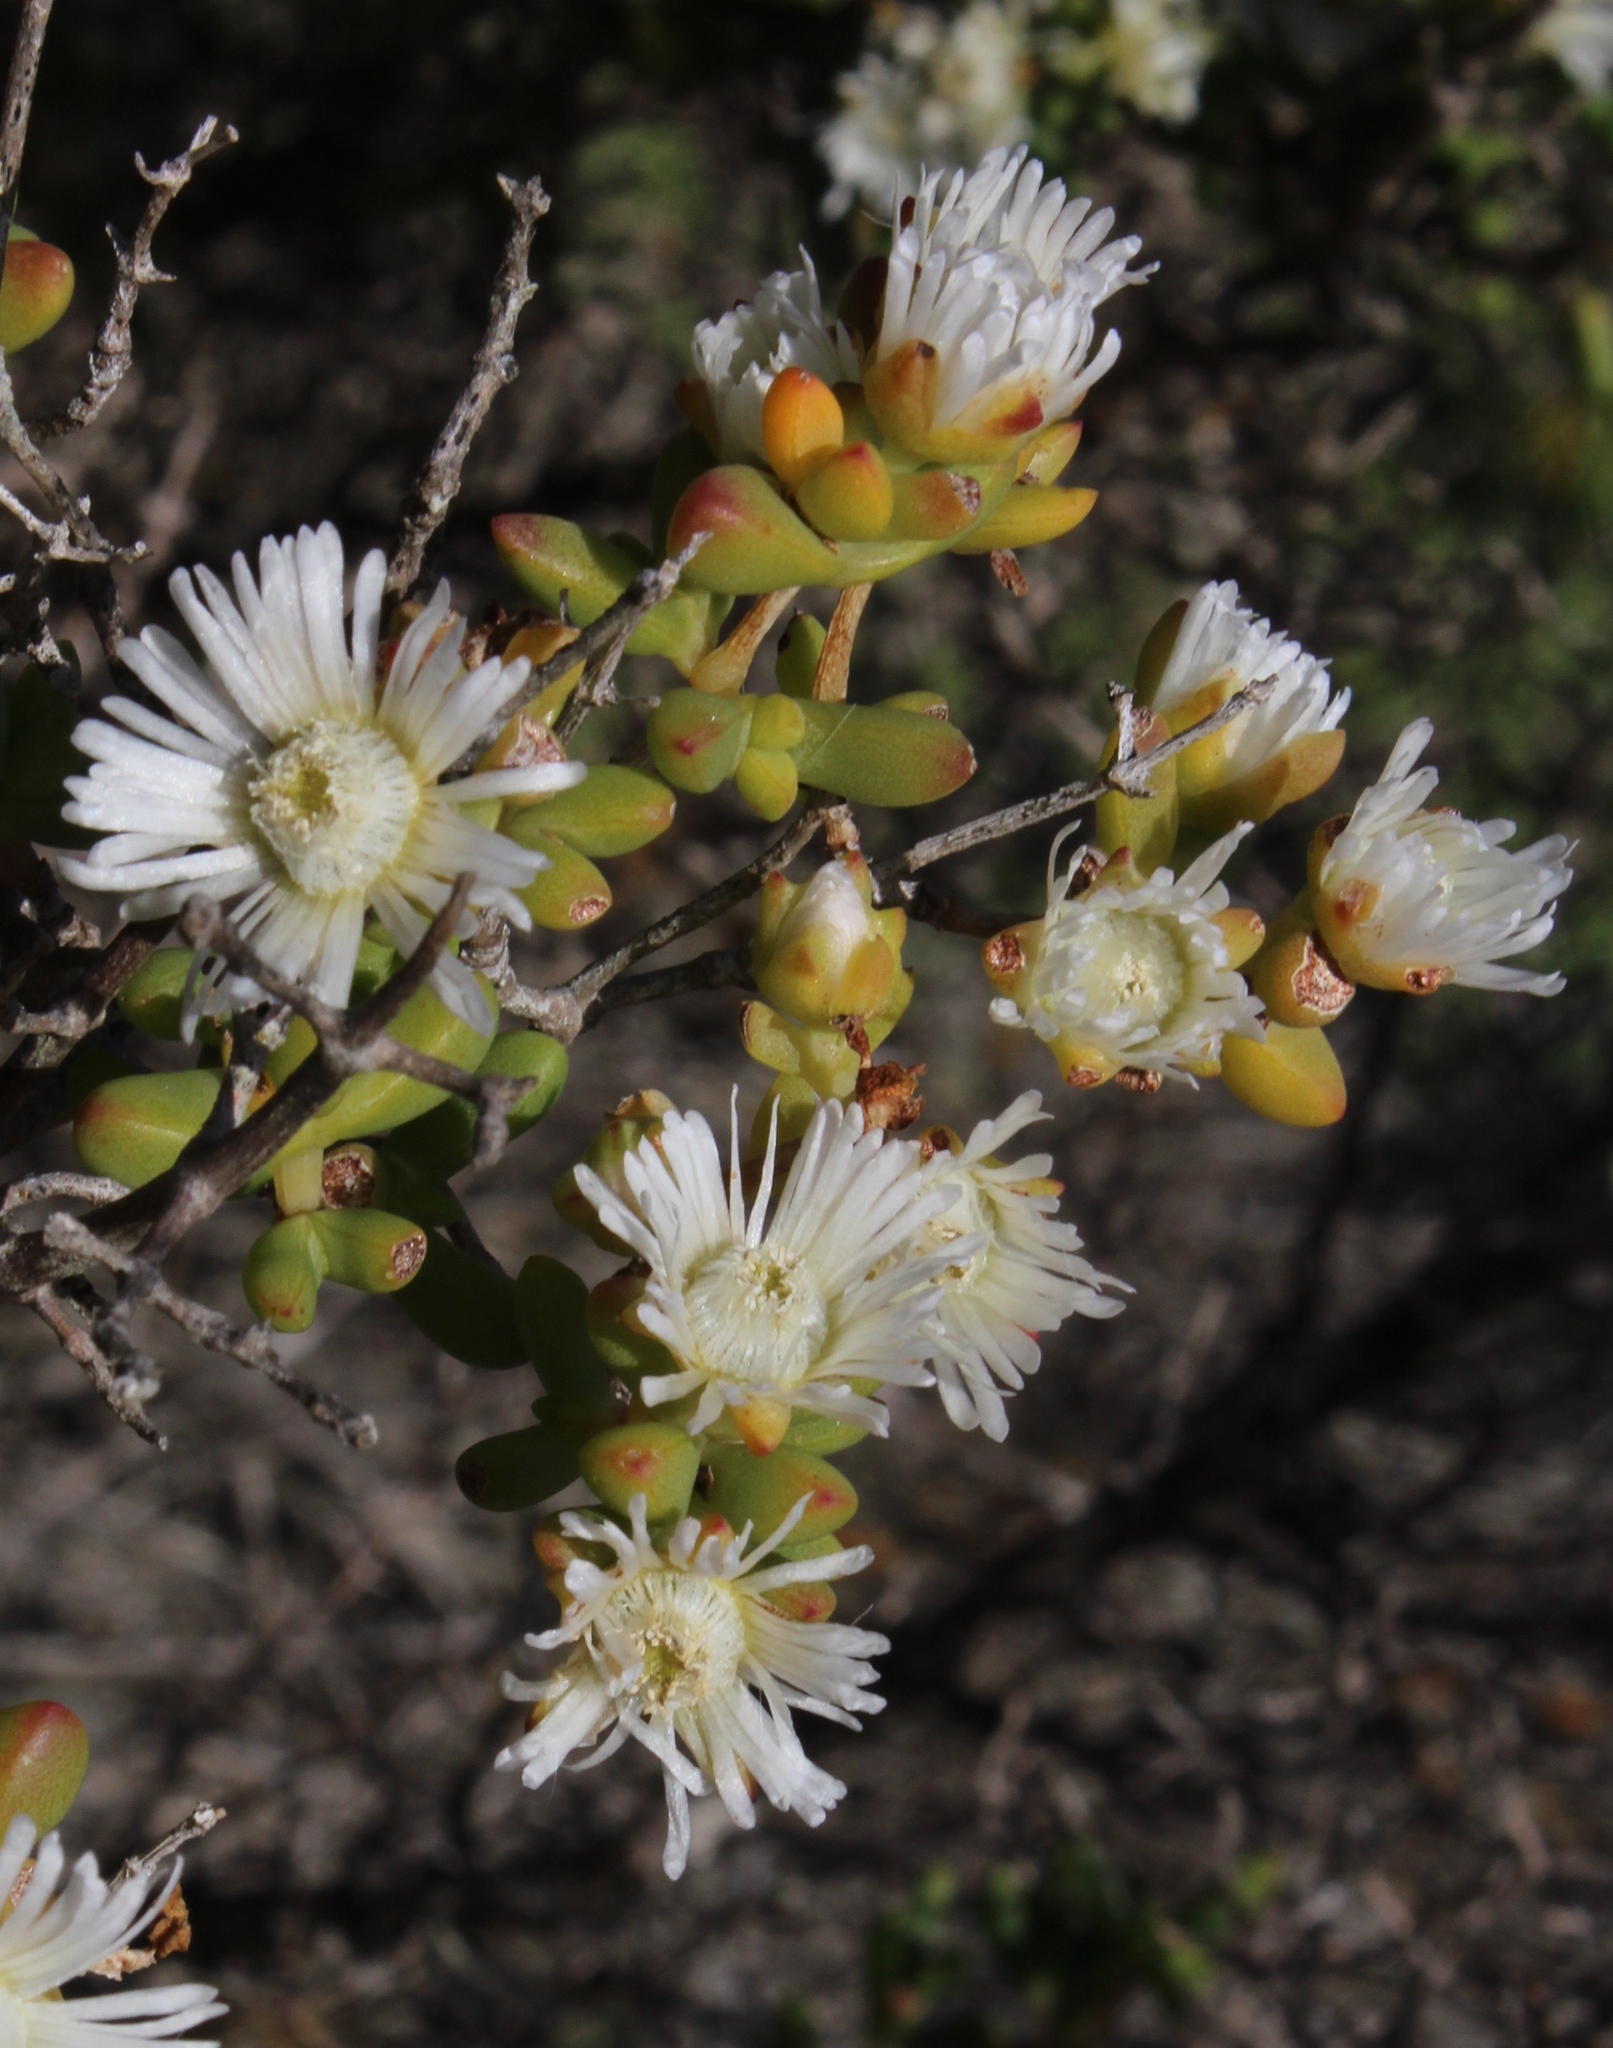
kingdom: Plantae
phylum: Tracheophyta
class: Magnoliopsida
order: Caryophyllales
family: Aizoaceae
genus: Stoeberia
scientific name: Stoeberia utilis
